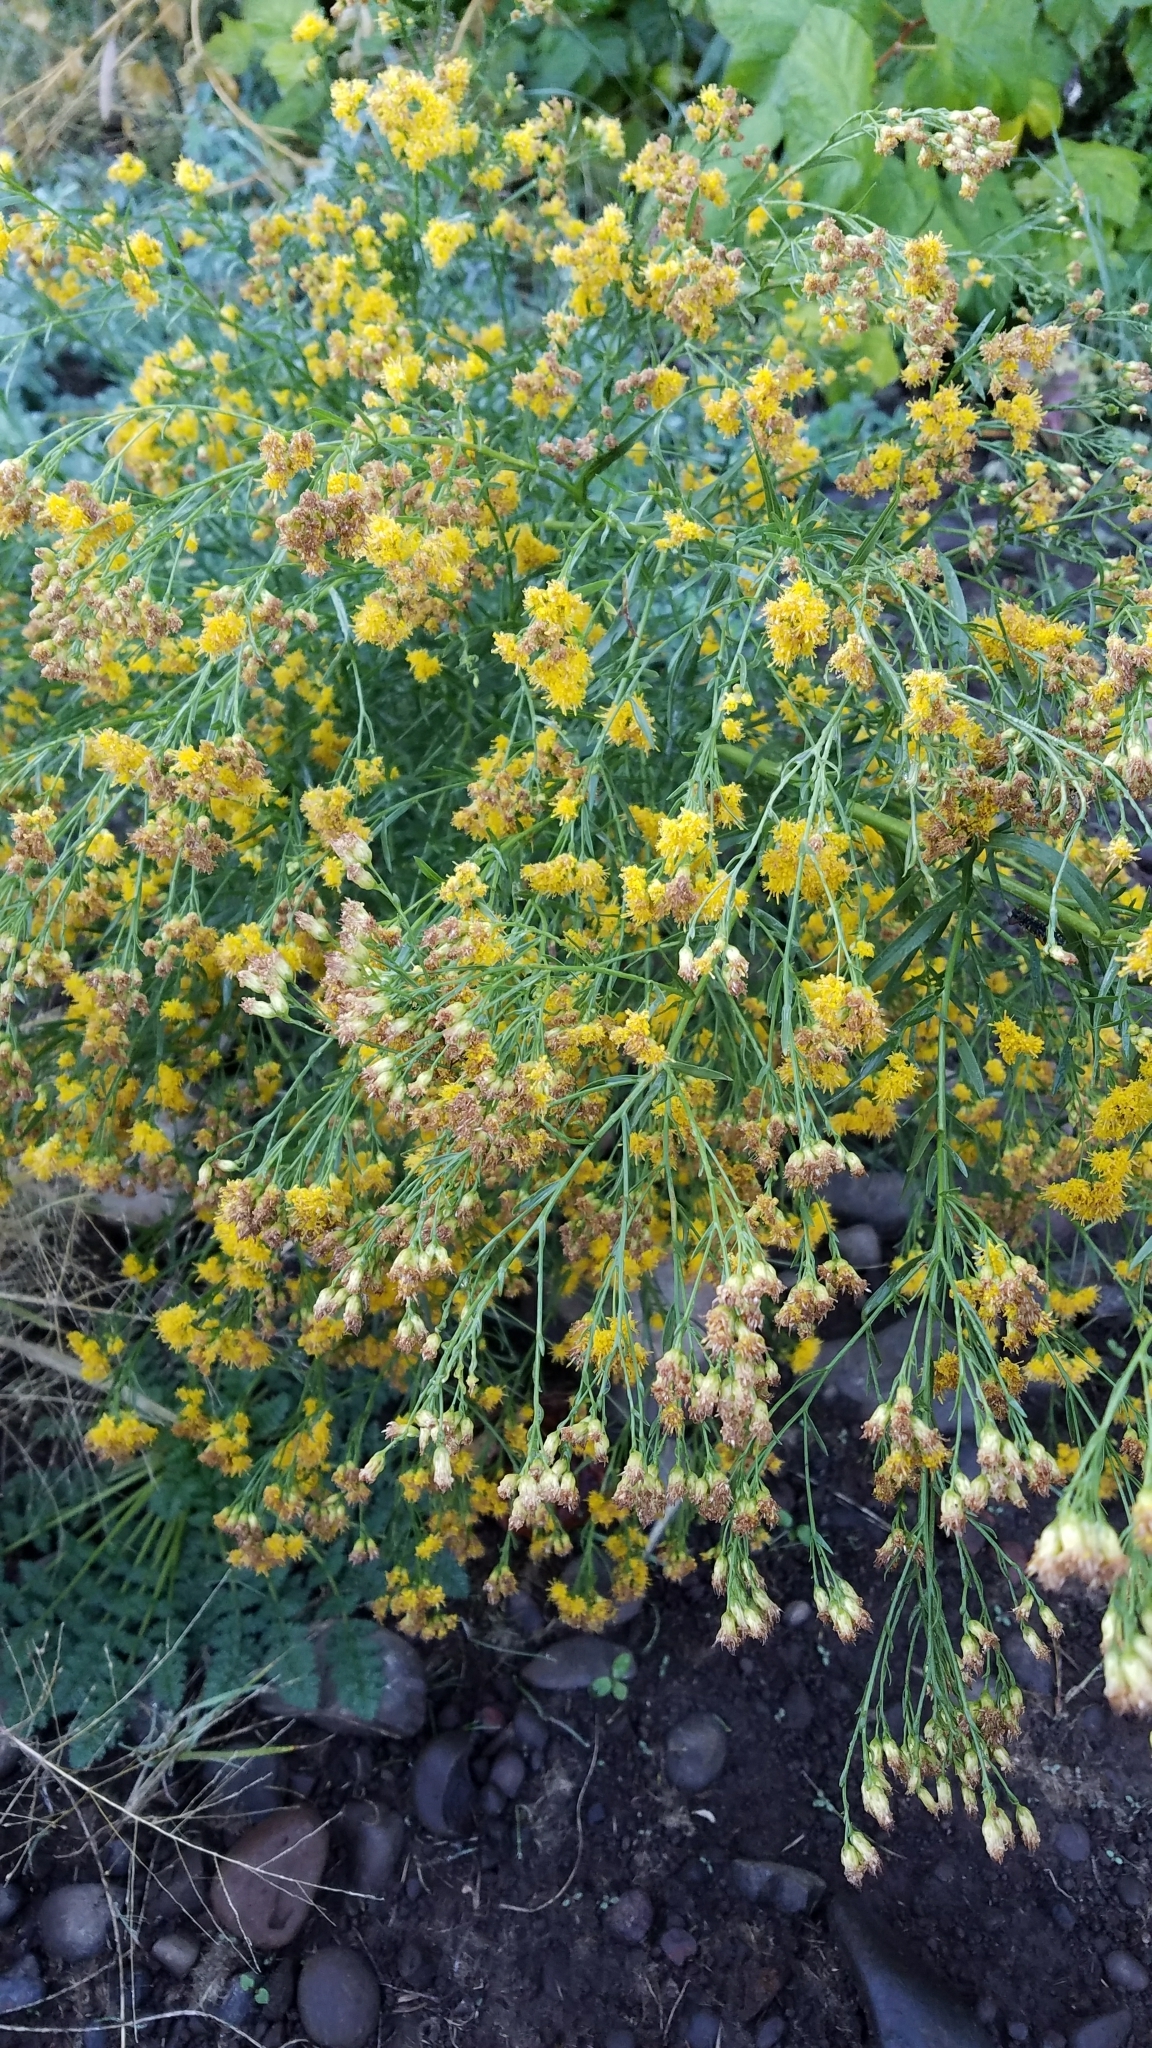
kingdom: Plantae
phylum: Tracheophyta
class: Magnoliopsida
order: Asterales
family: Asteraceae
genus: Euthamia
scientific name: Euthamia occidentalis
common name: Western goldentop
